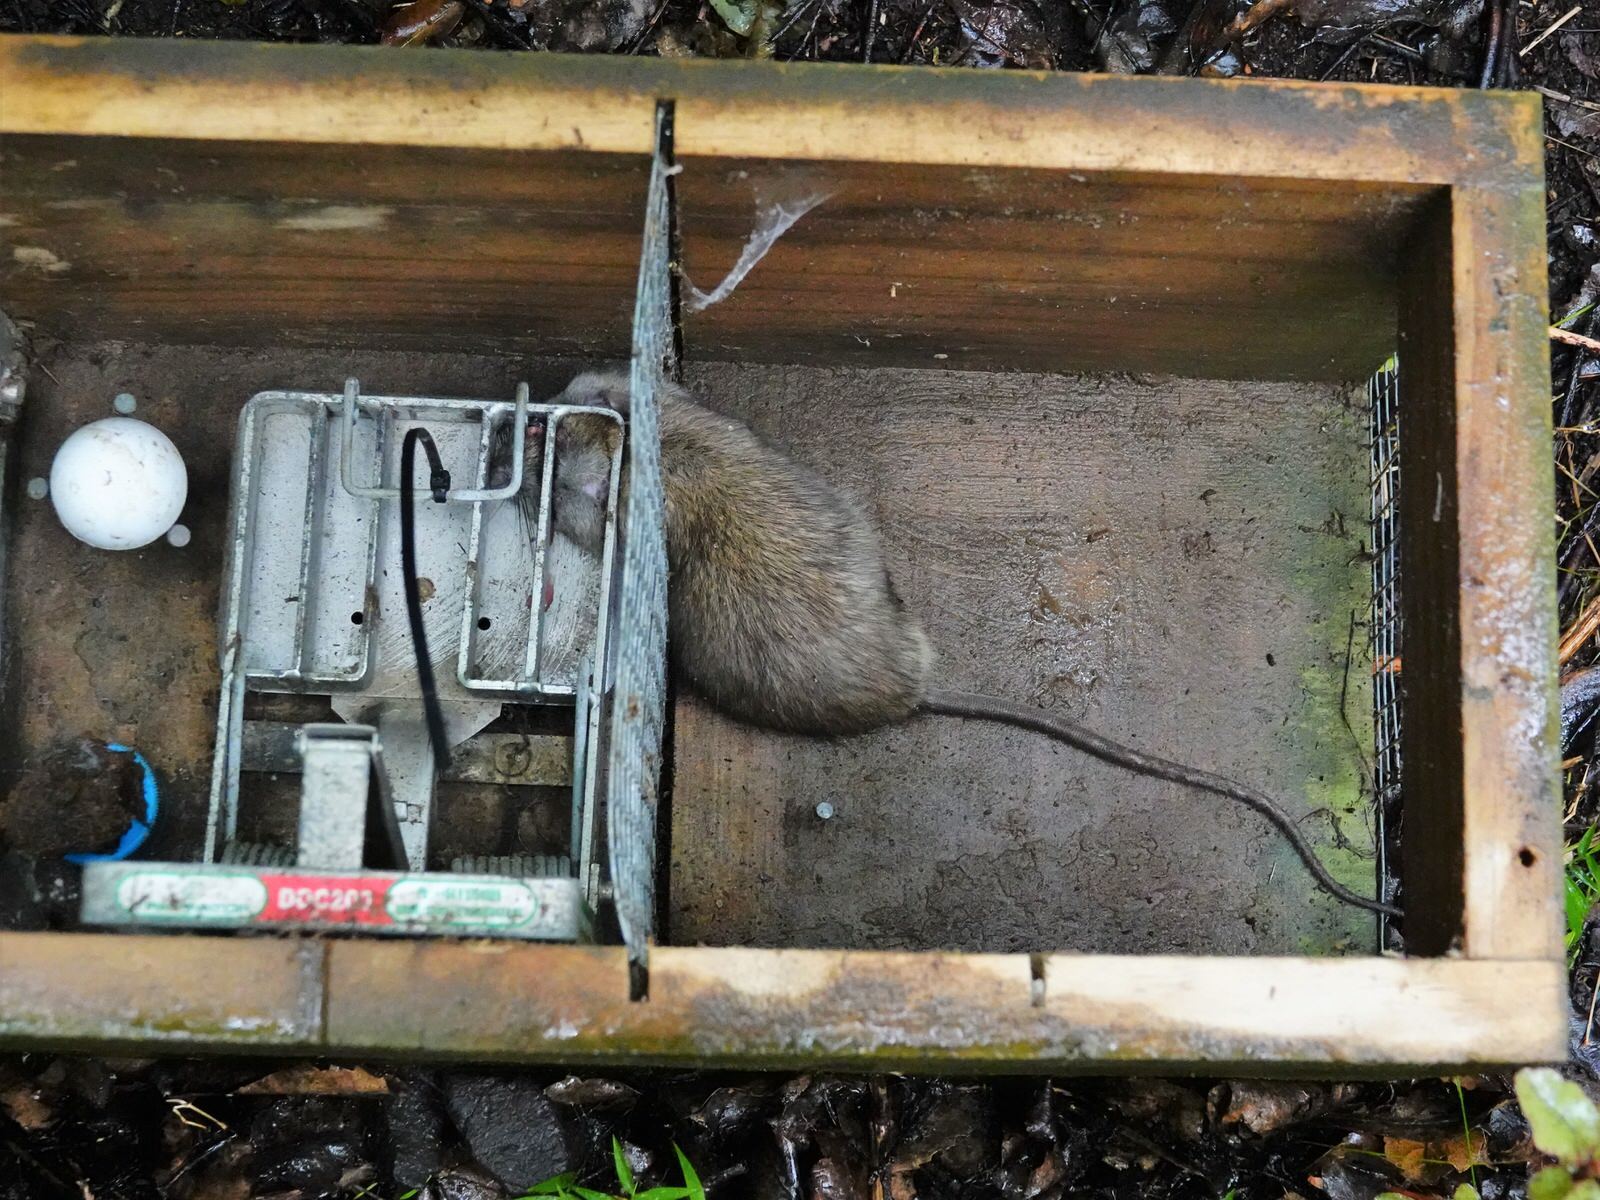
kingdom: Animalia
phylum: Chordata
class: Mammalia
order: Rodentia
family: Muridae
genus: Rattus
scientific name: Rattus rattus
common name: Black rat
